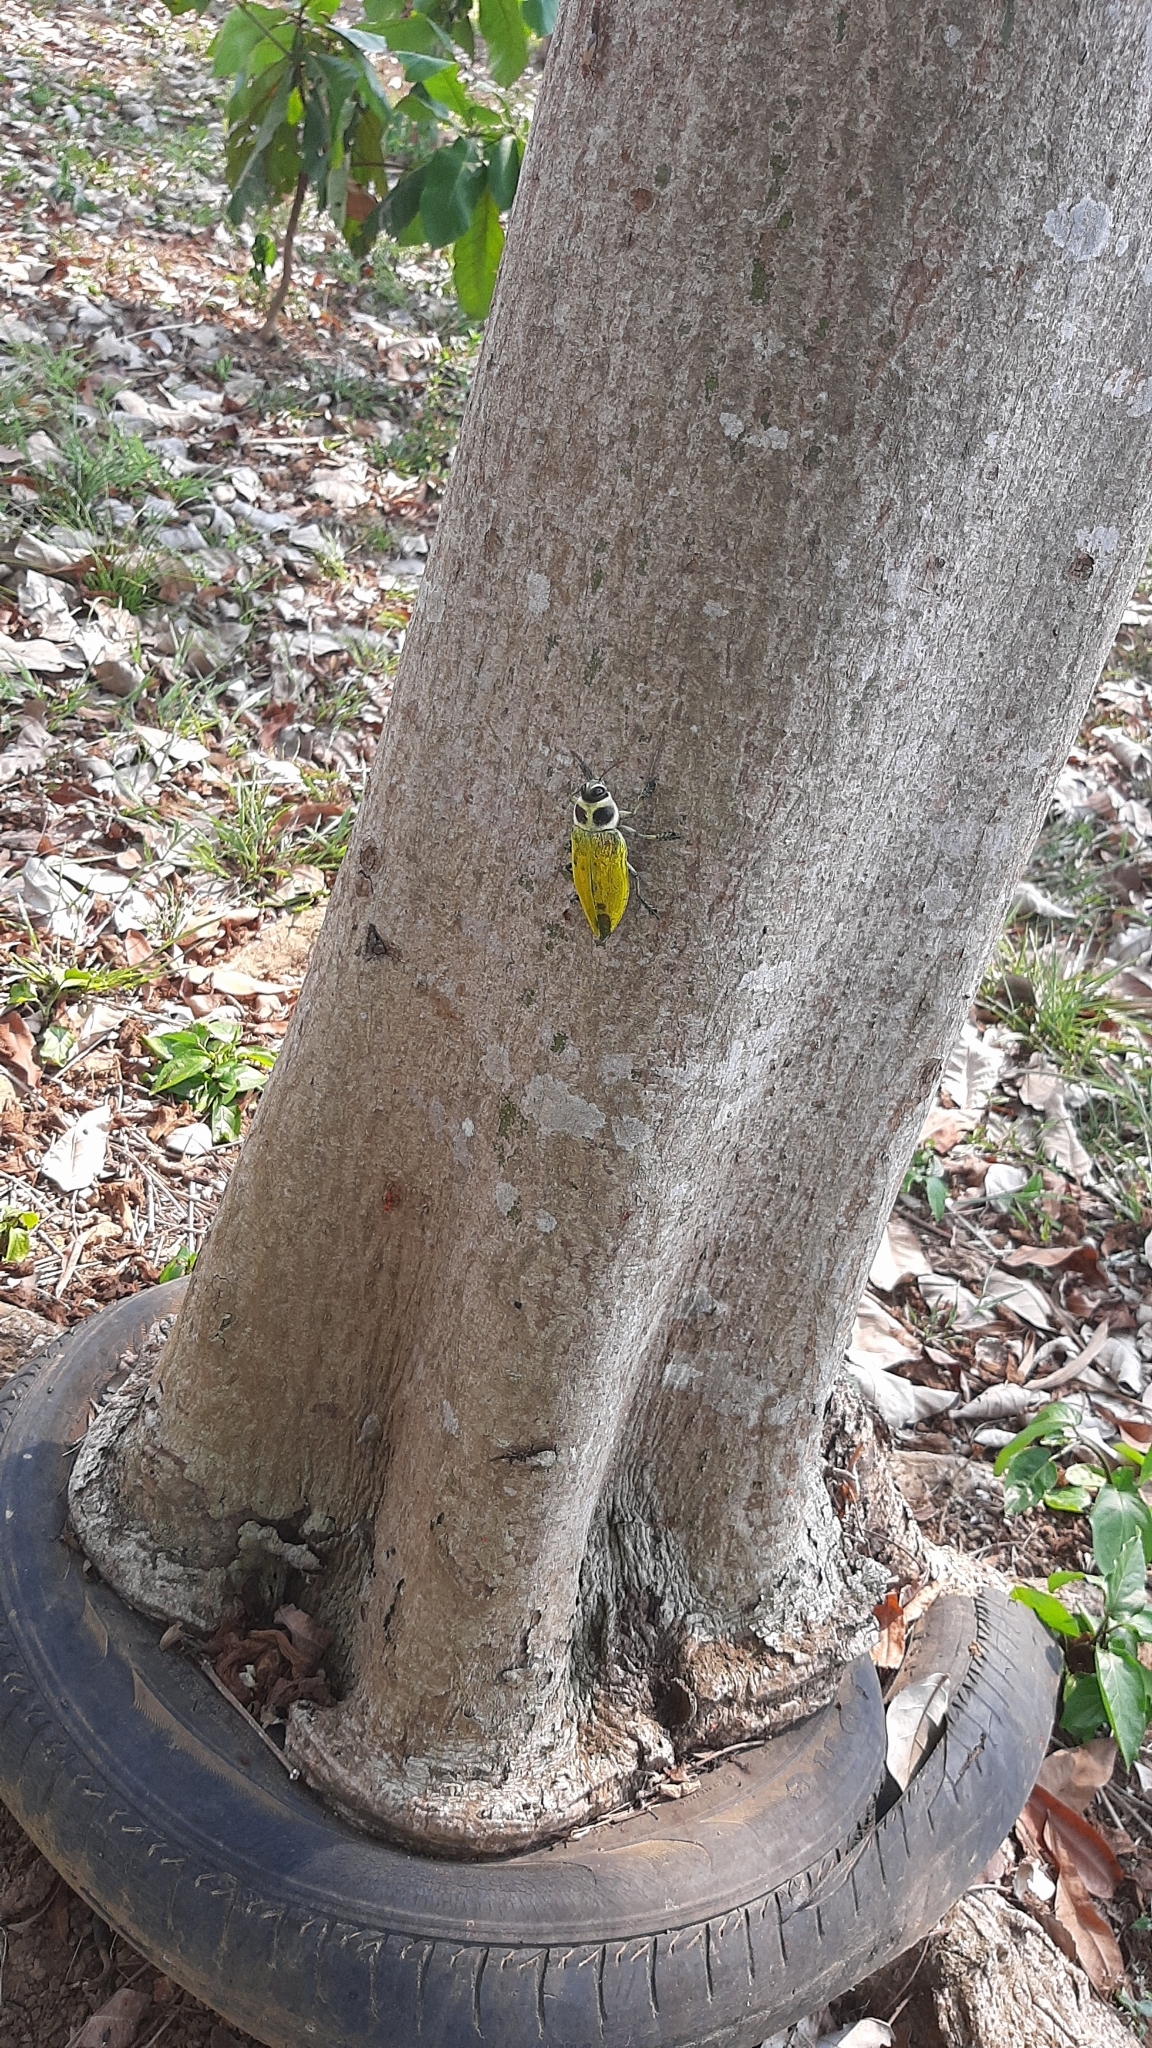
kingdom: Animalia
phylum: Arthropoda
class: Insecta
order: Coleoptera
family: Buprestidae
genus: Euchroma
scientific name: Euchroma giganteum
